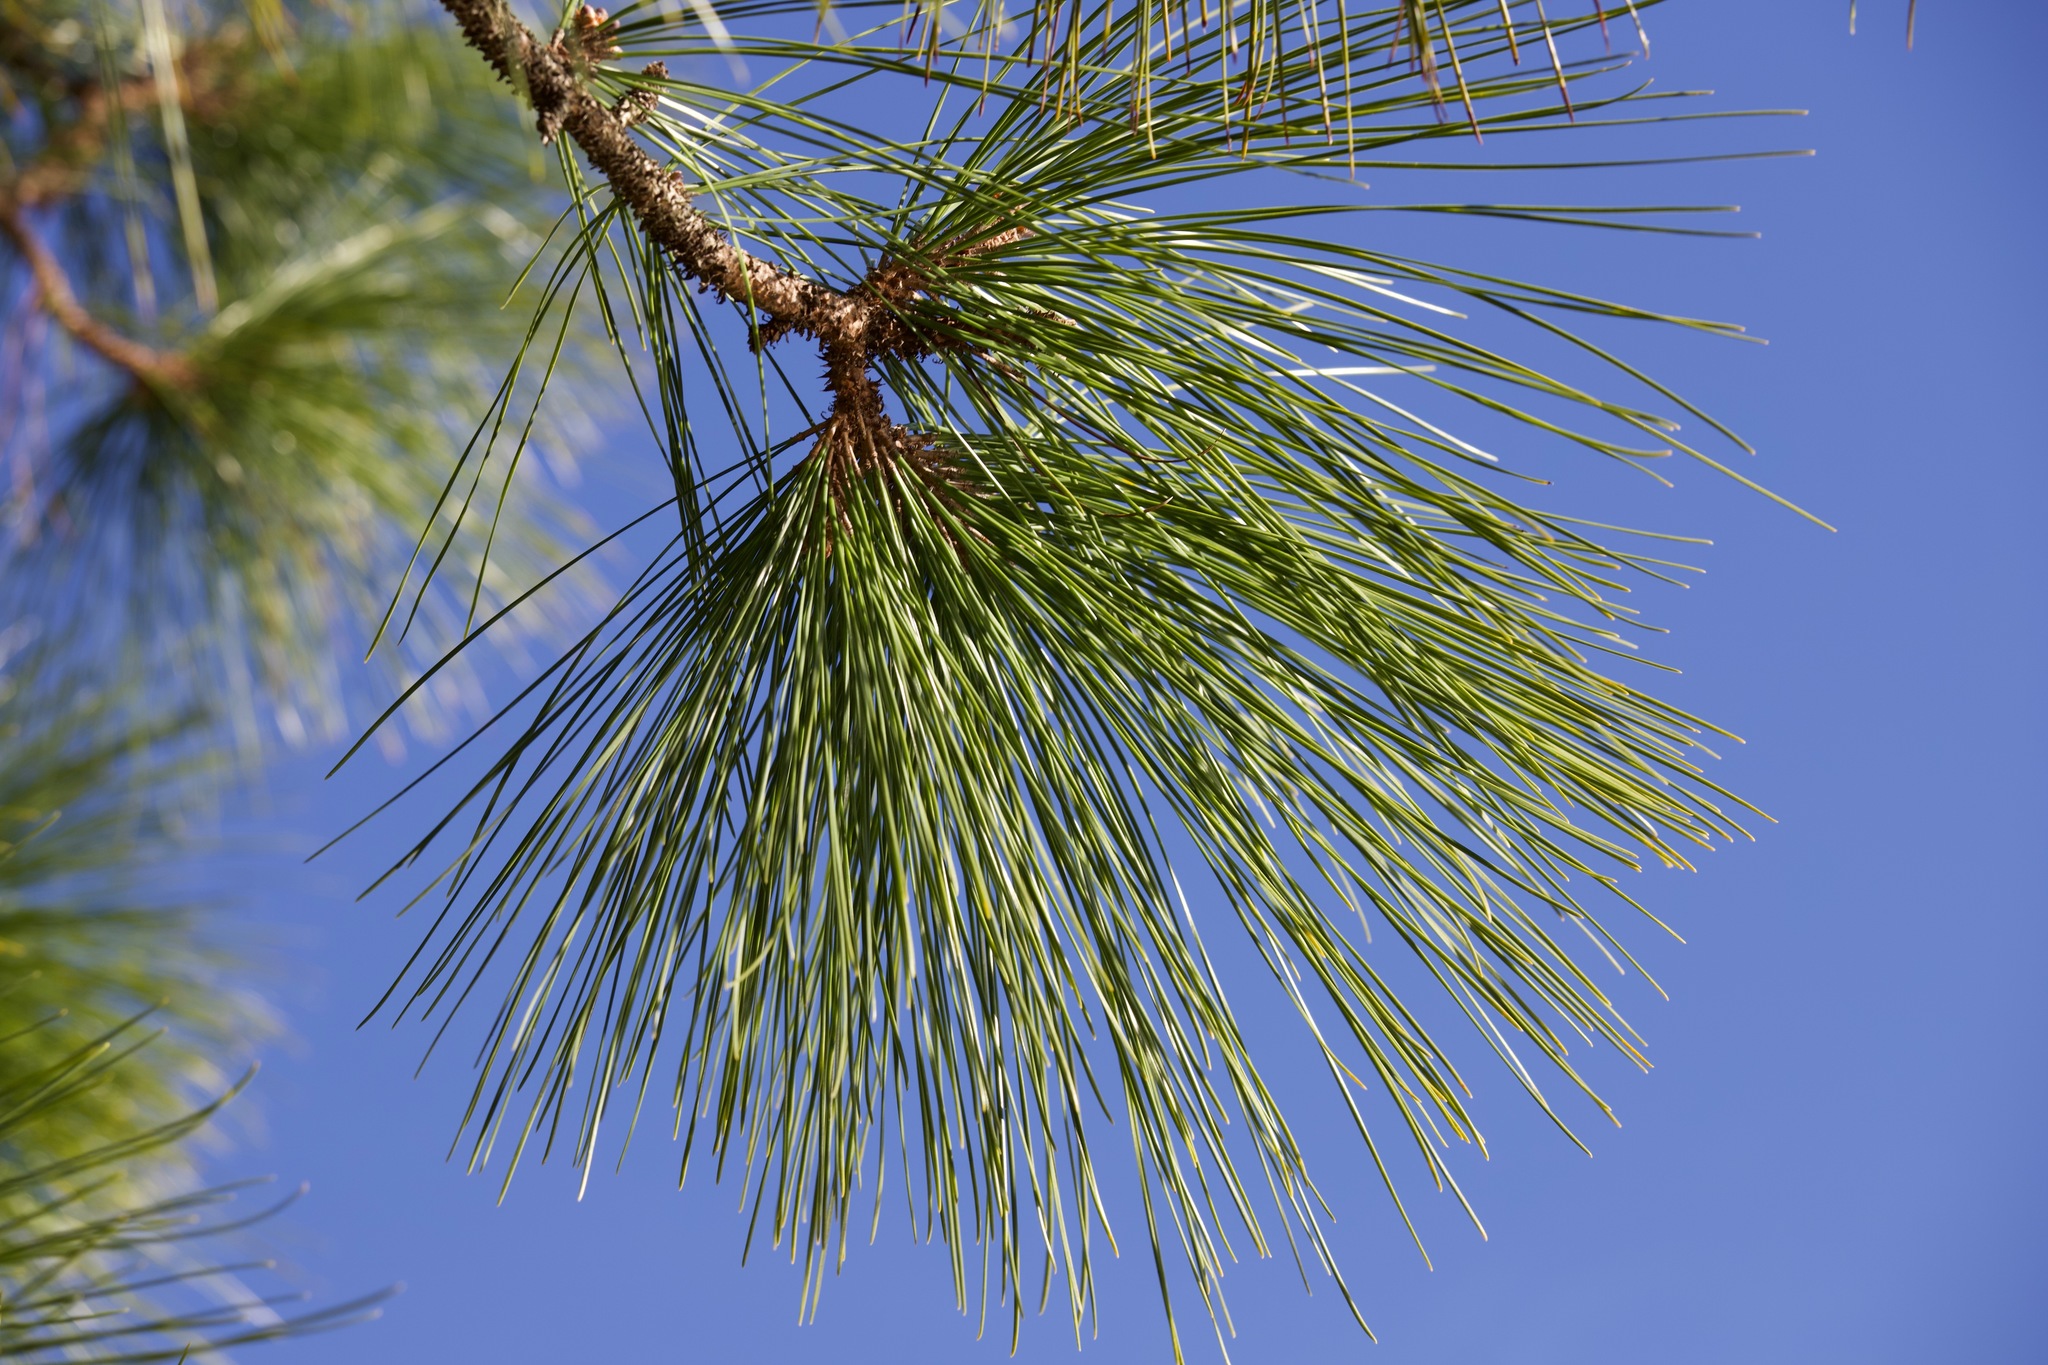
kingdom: Plantae
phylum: Tracheophyta
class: Pinopsida
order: Pinales
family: Pinaceae
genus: Pinus
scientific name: Pinus elliottii
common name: Slash pine
